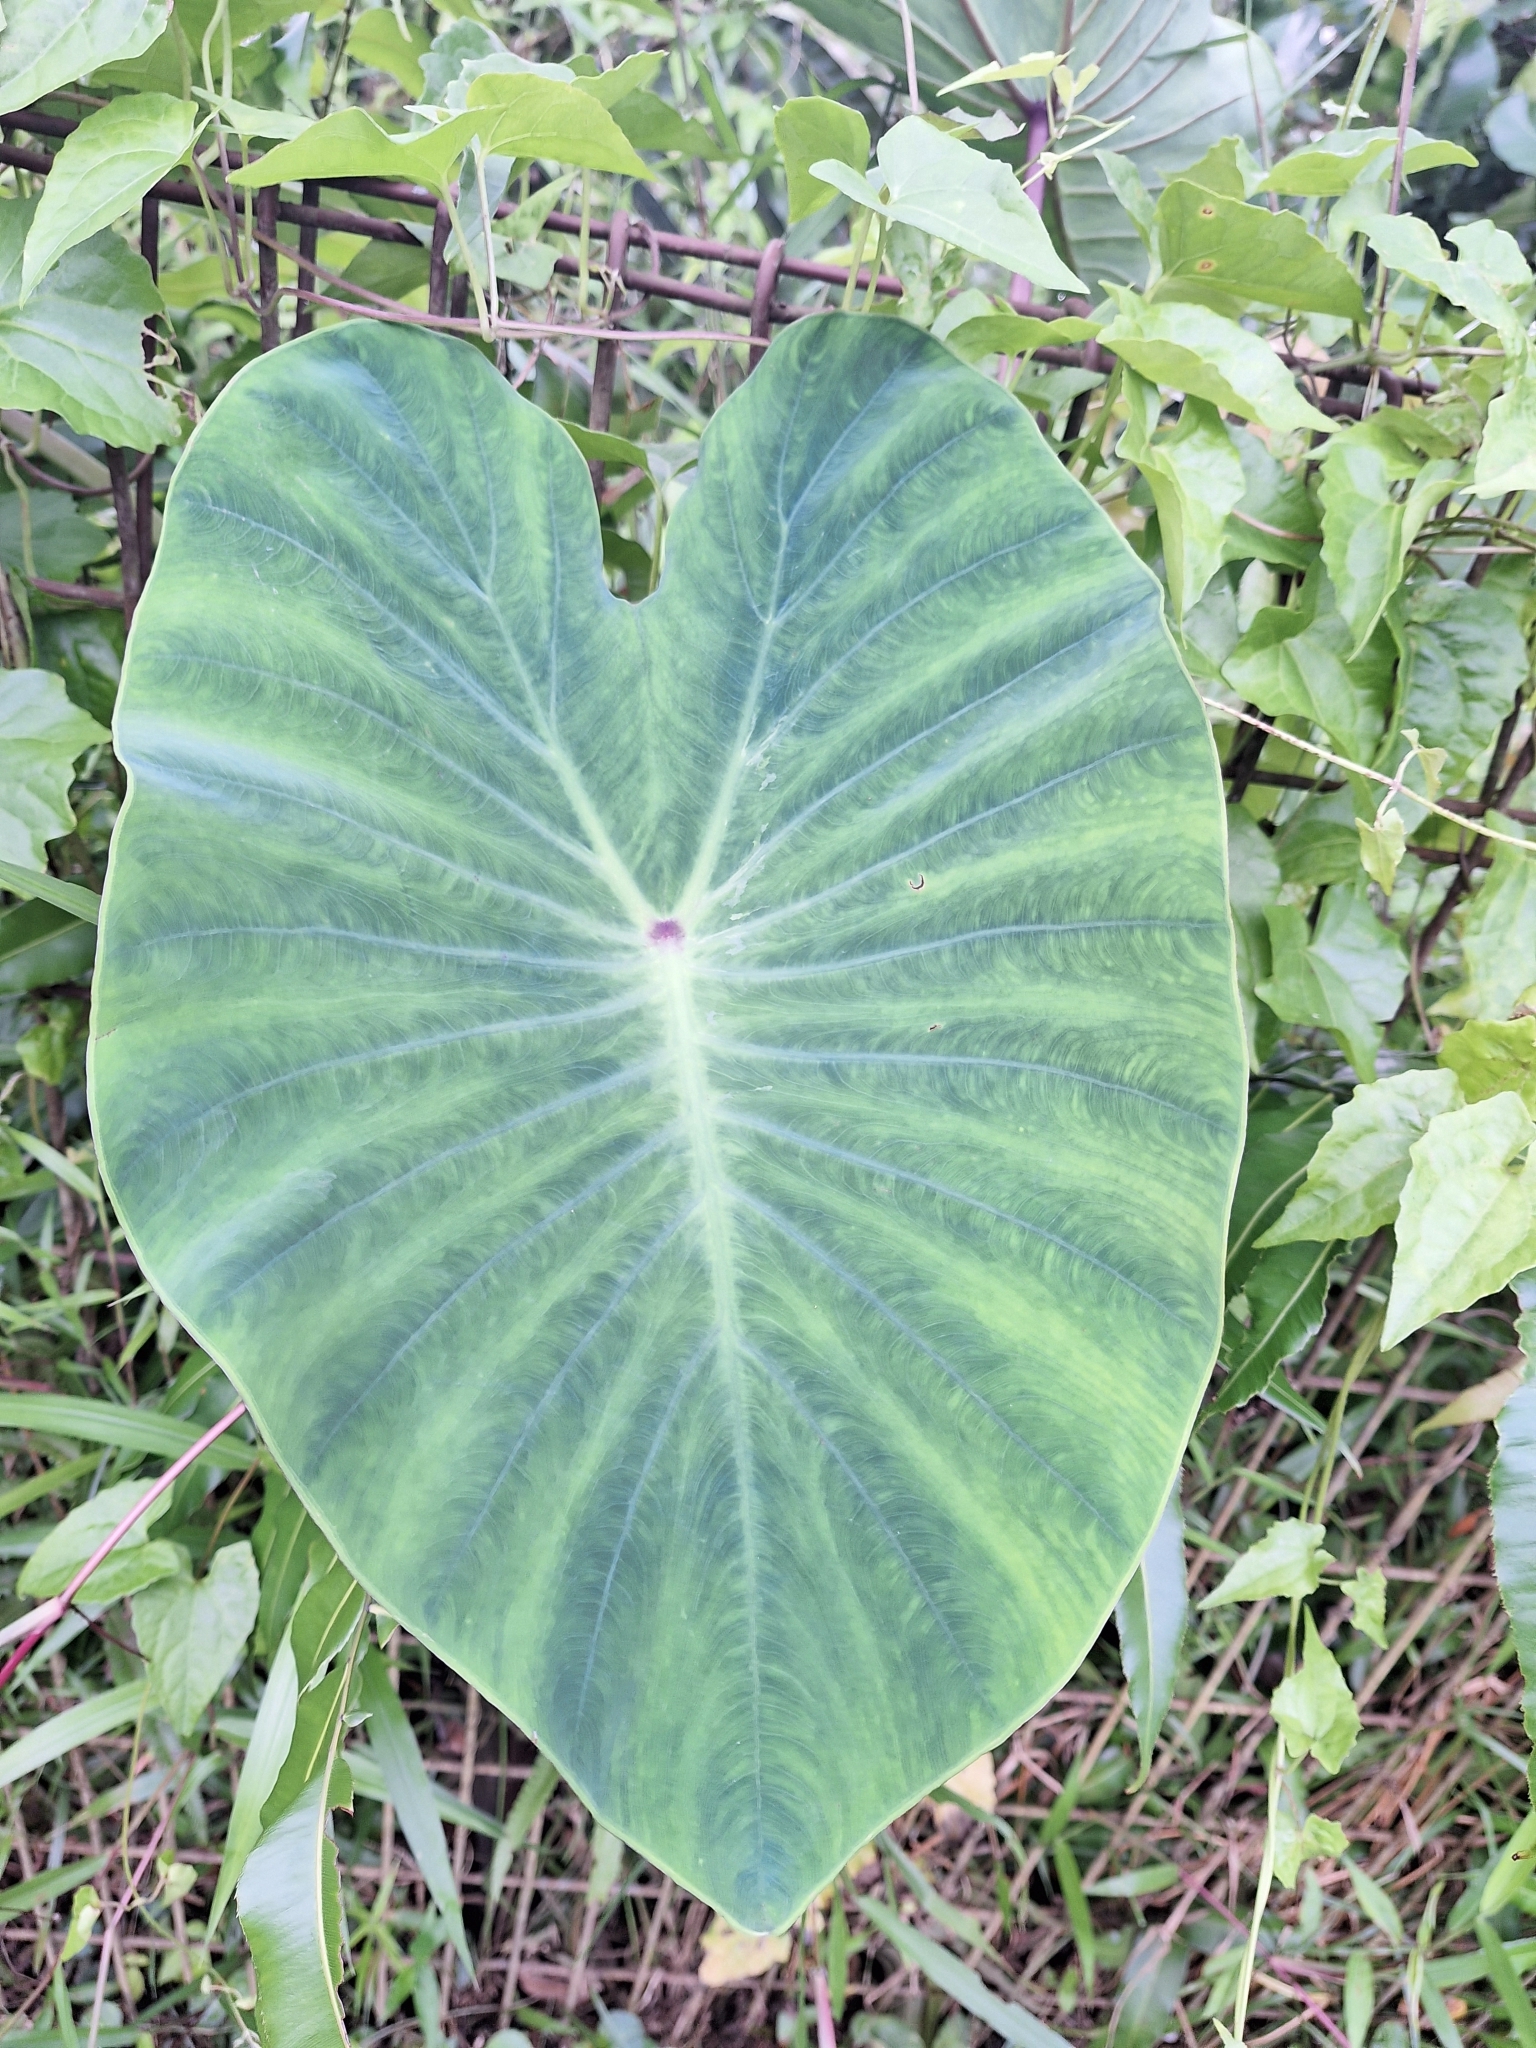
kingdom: Plantae
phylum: Tracheophyta
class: Liliopsida
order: Alismatales
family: Araceae
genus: Colocasia
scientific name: Colocasia esculenta
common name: Taro
